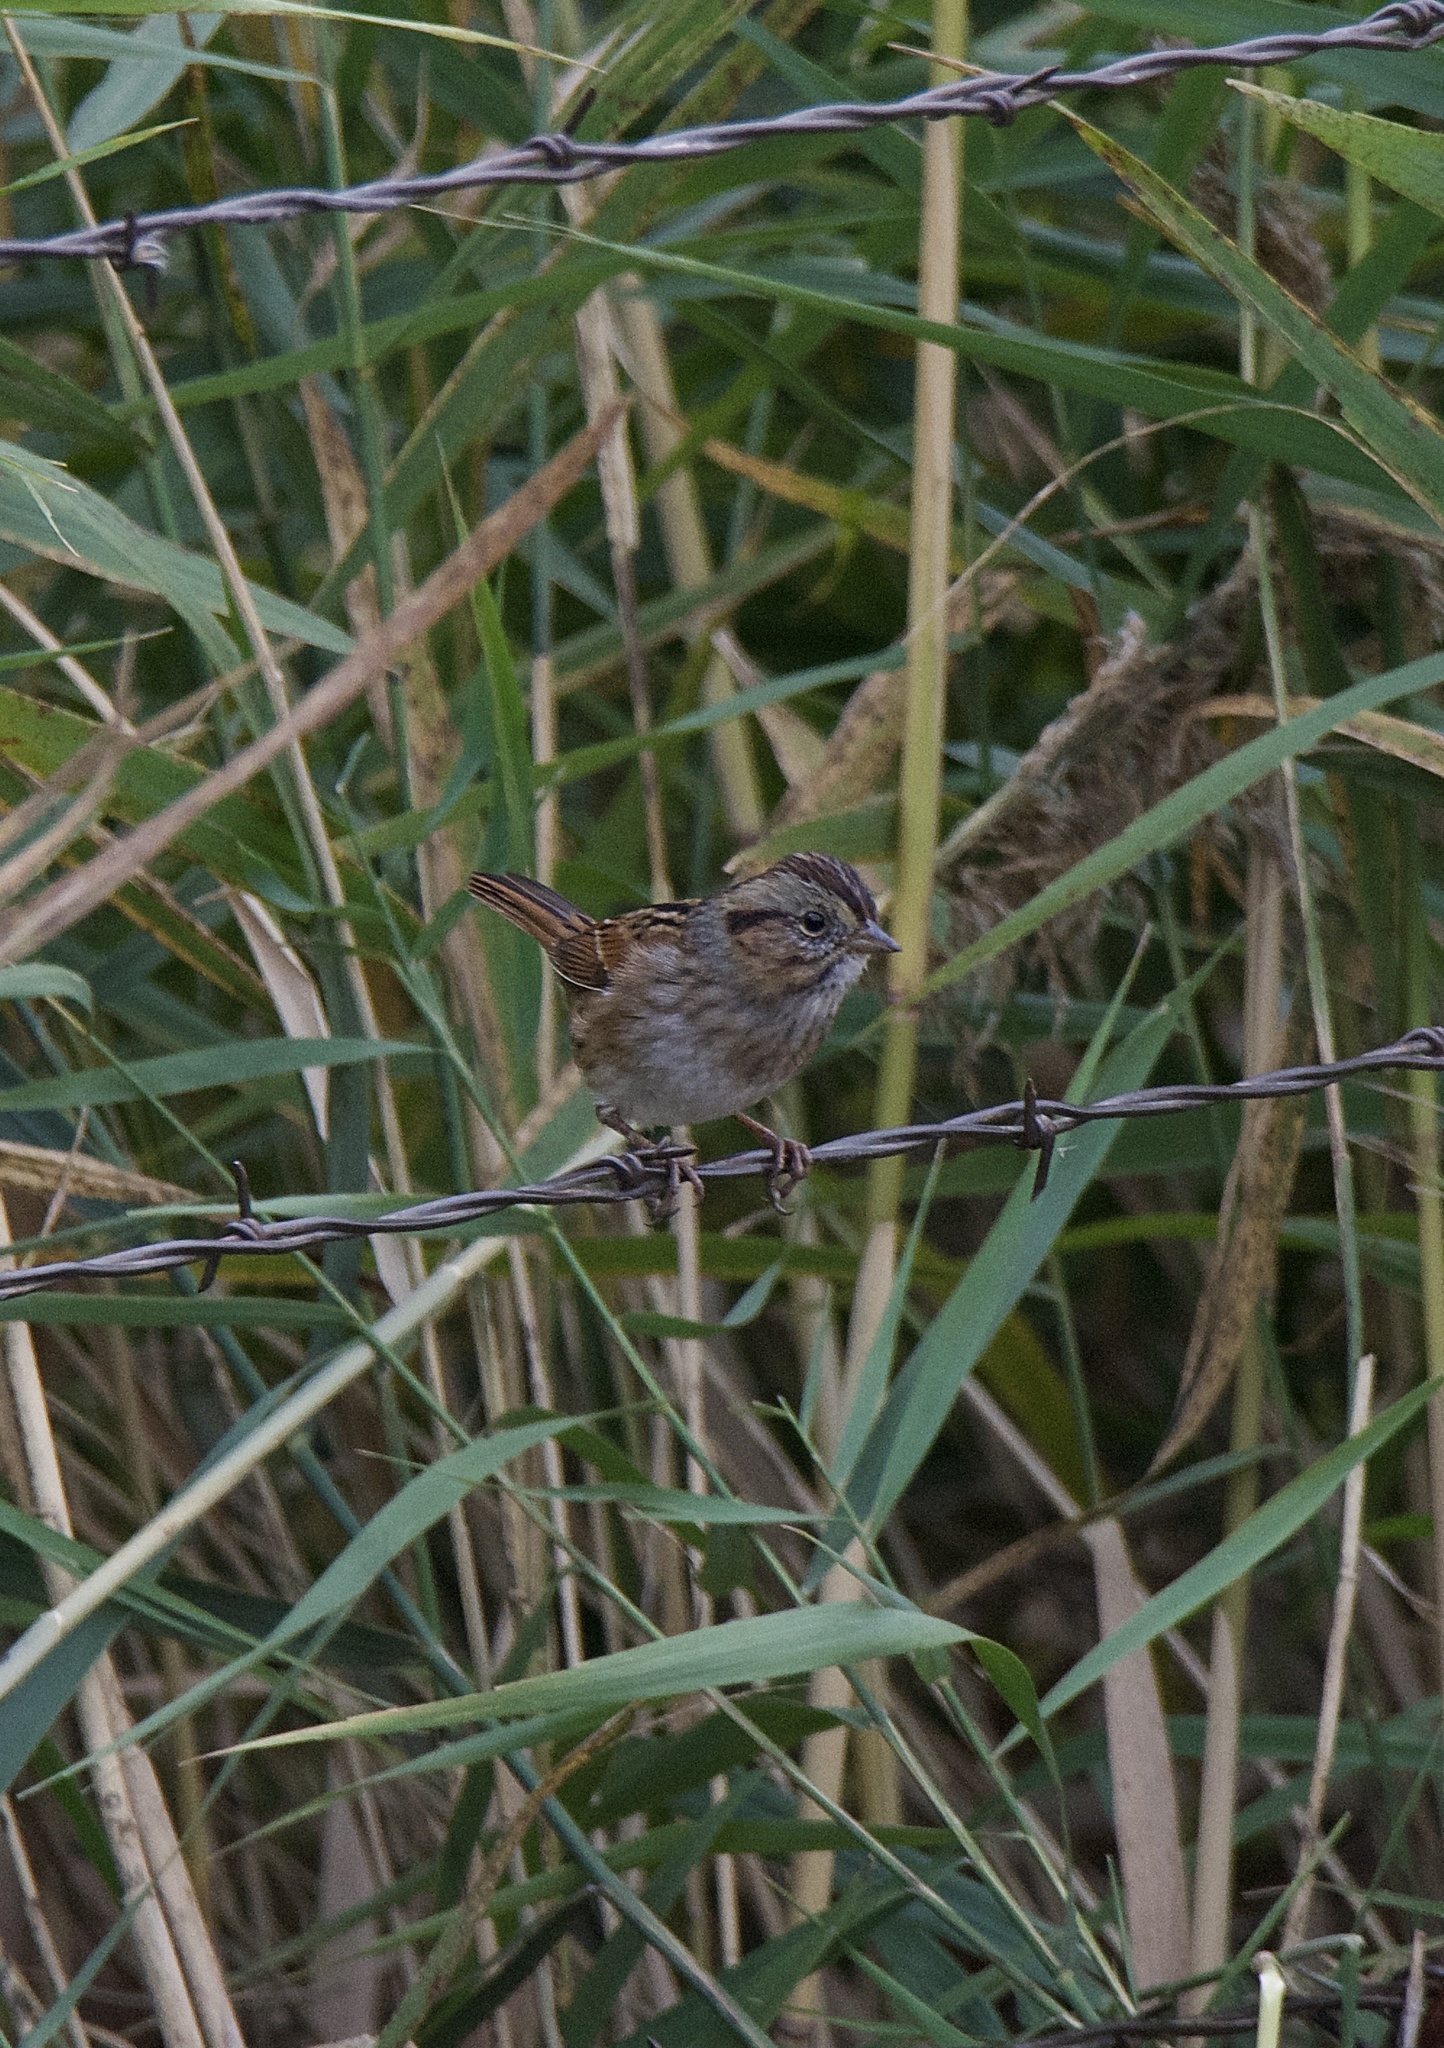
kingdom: Animalia
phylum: Chordata
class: Aves
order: Passeriformes
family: Passerellidae
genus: Melospiza
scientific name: Melospiza georgiana
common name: Swamp sparrow
